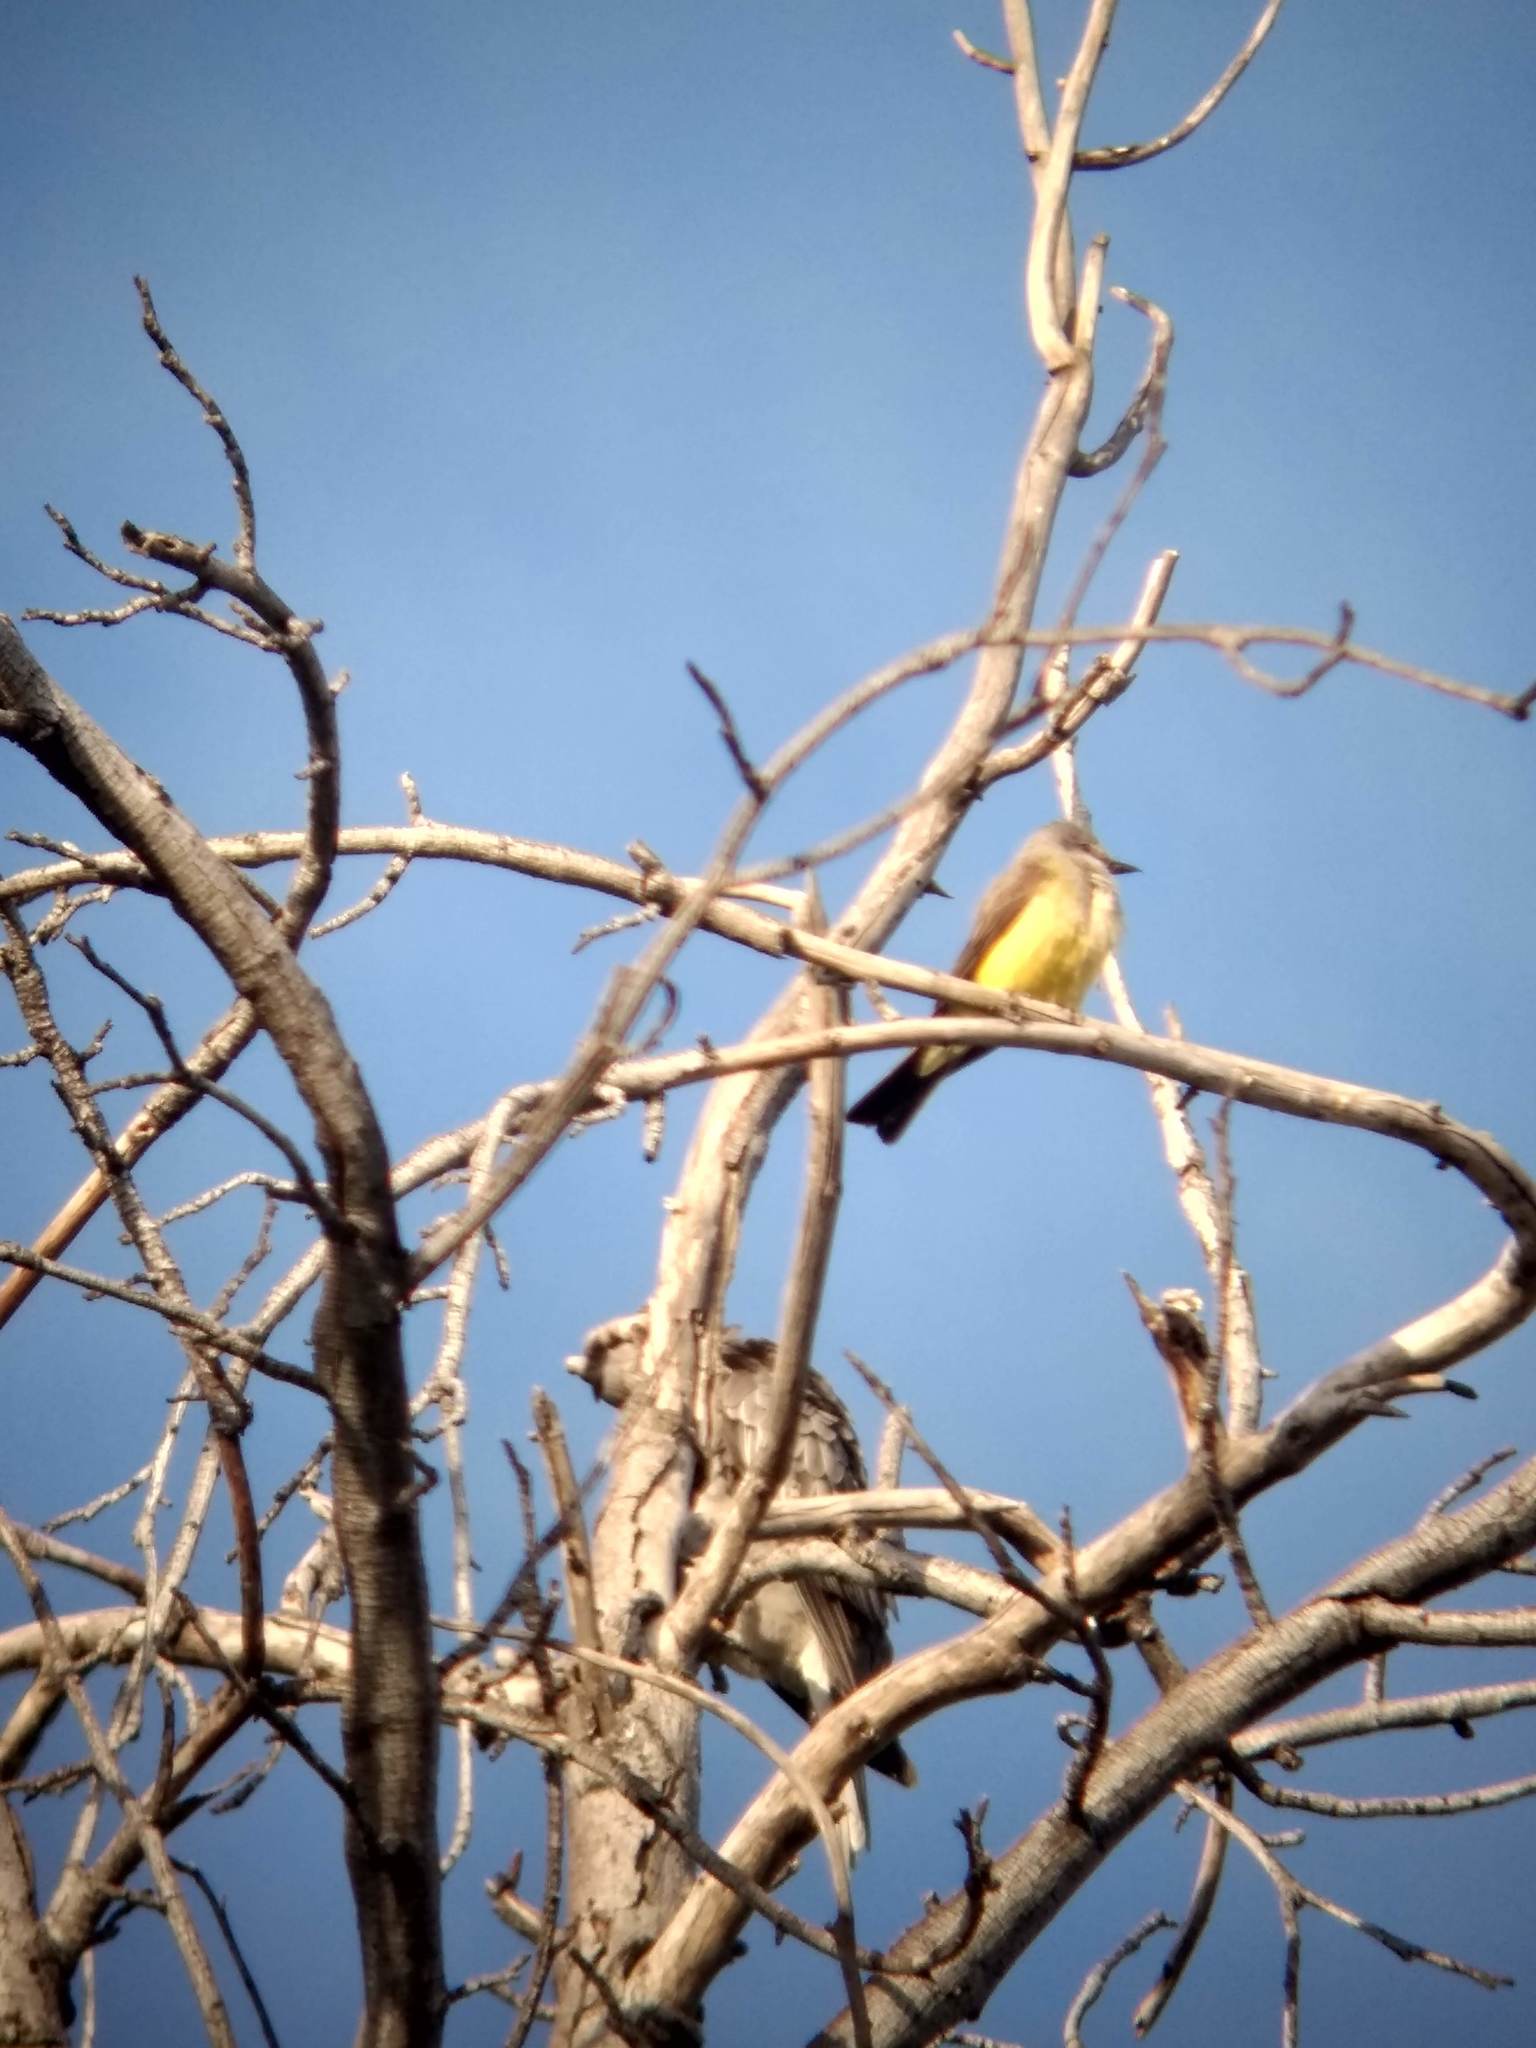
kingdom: Animalia
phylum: Chordata
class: Aves
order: Passeriformes
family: Tyrannidae
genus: Tyrannus
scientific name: Tyrannus verticalis
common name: Western kingbird
